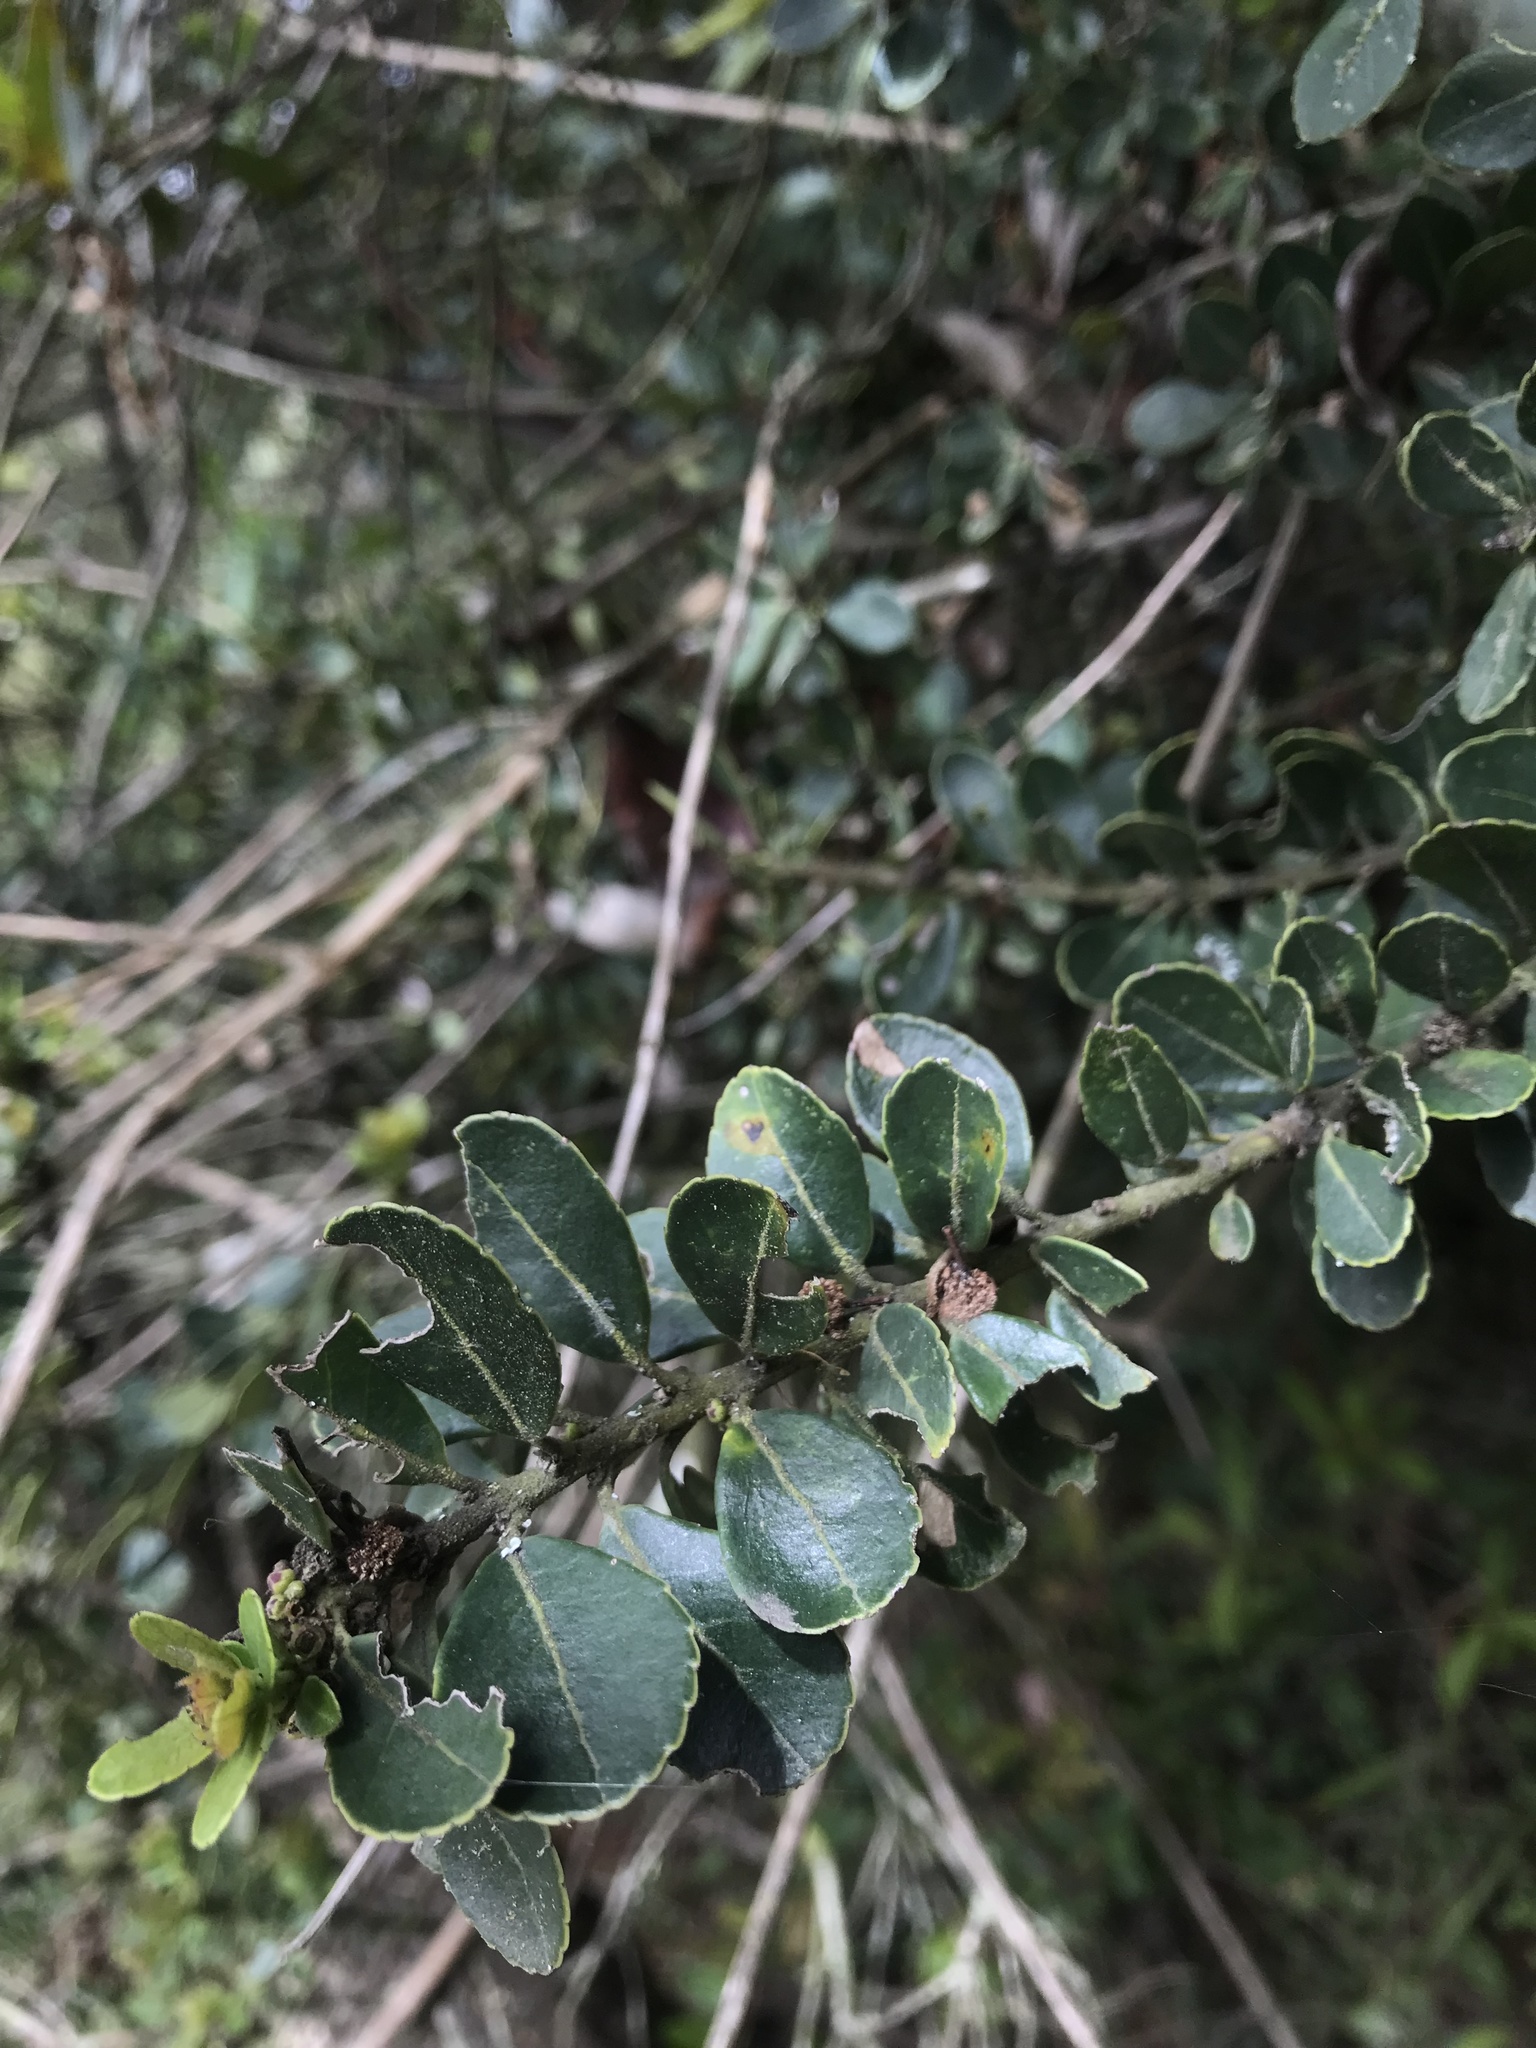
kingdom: Plantae
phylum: Tracheophyta
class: Magnoliopsida
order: Aquifoliales
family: Aquifoliaceae
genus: Ilex
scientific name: Ilex microphylla
